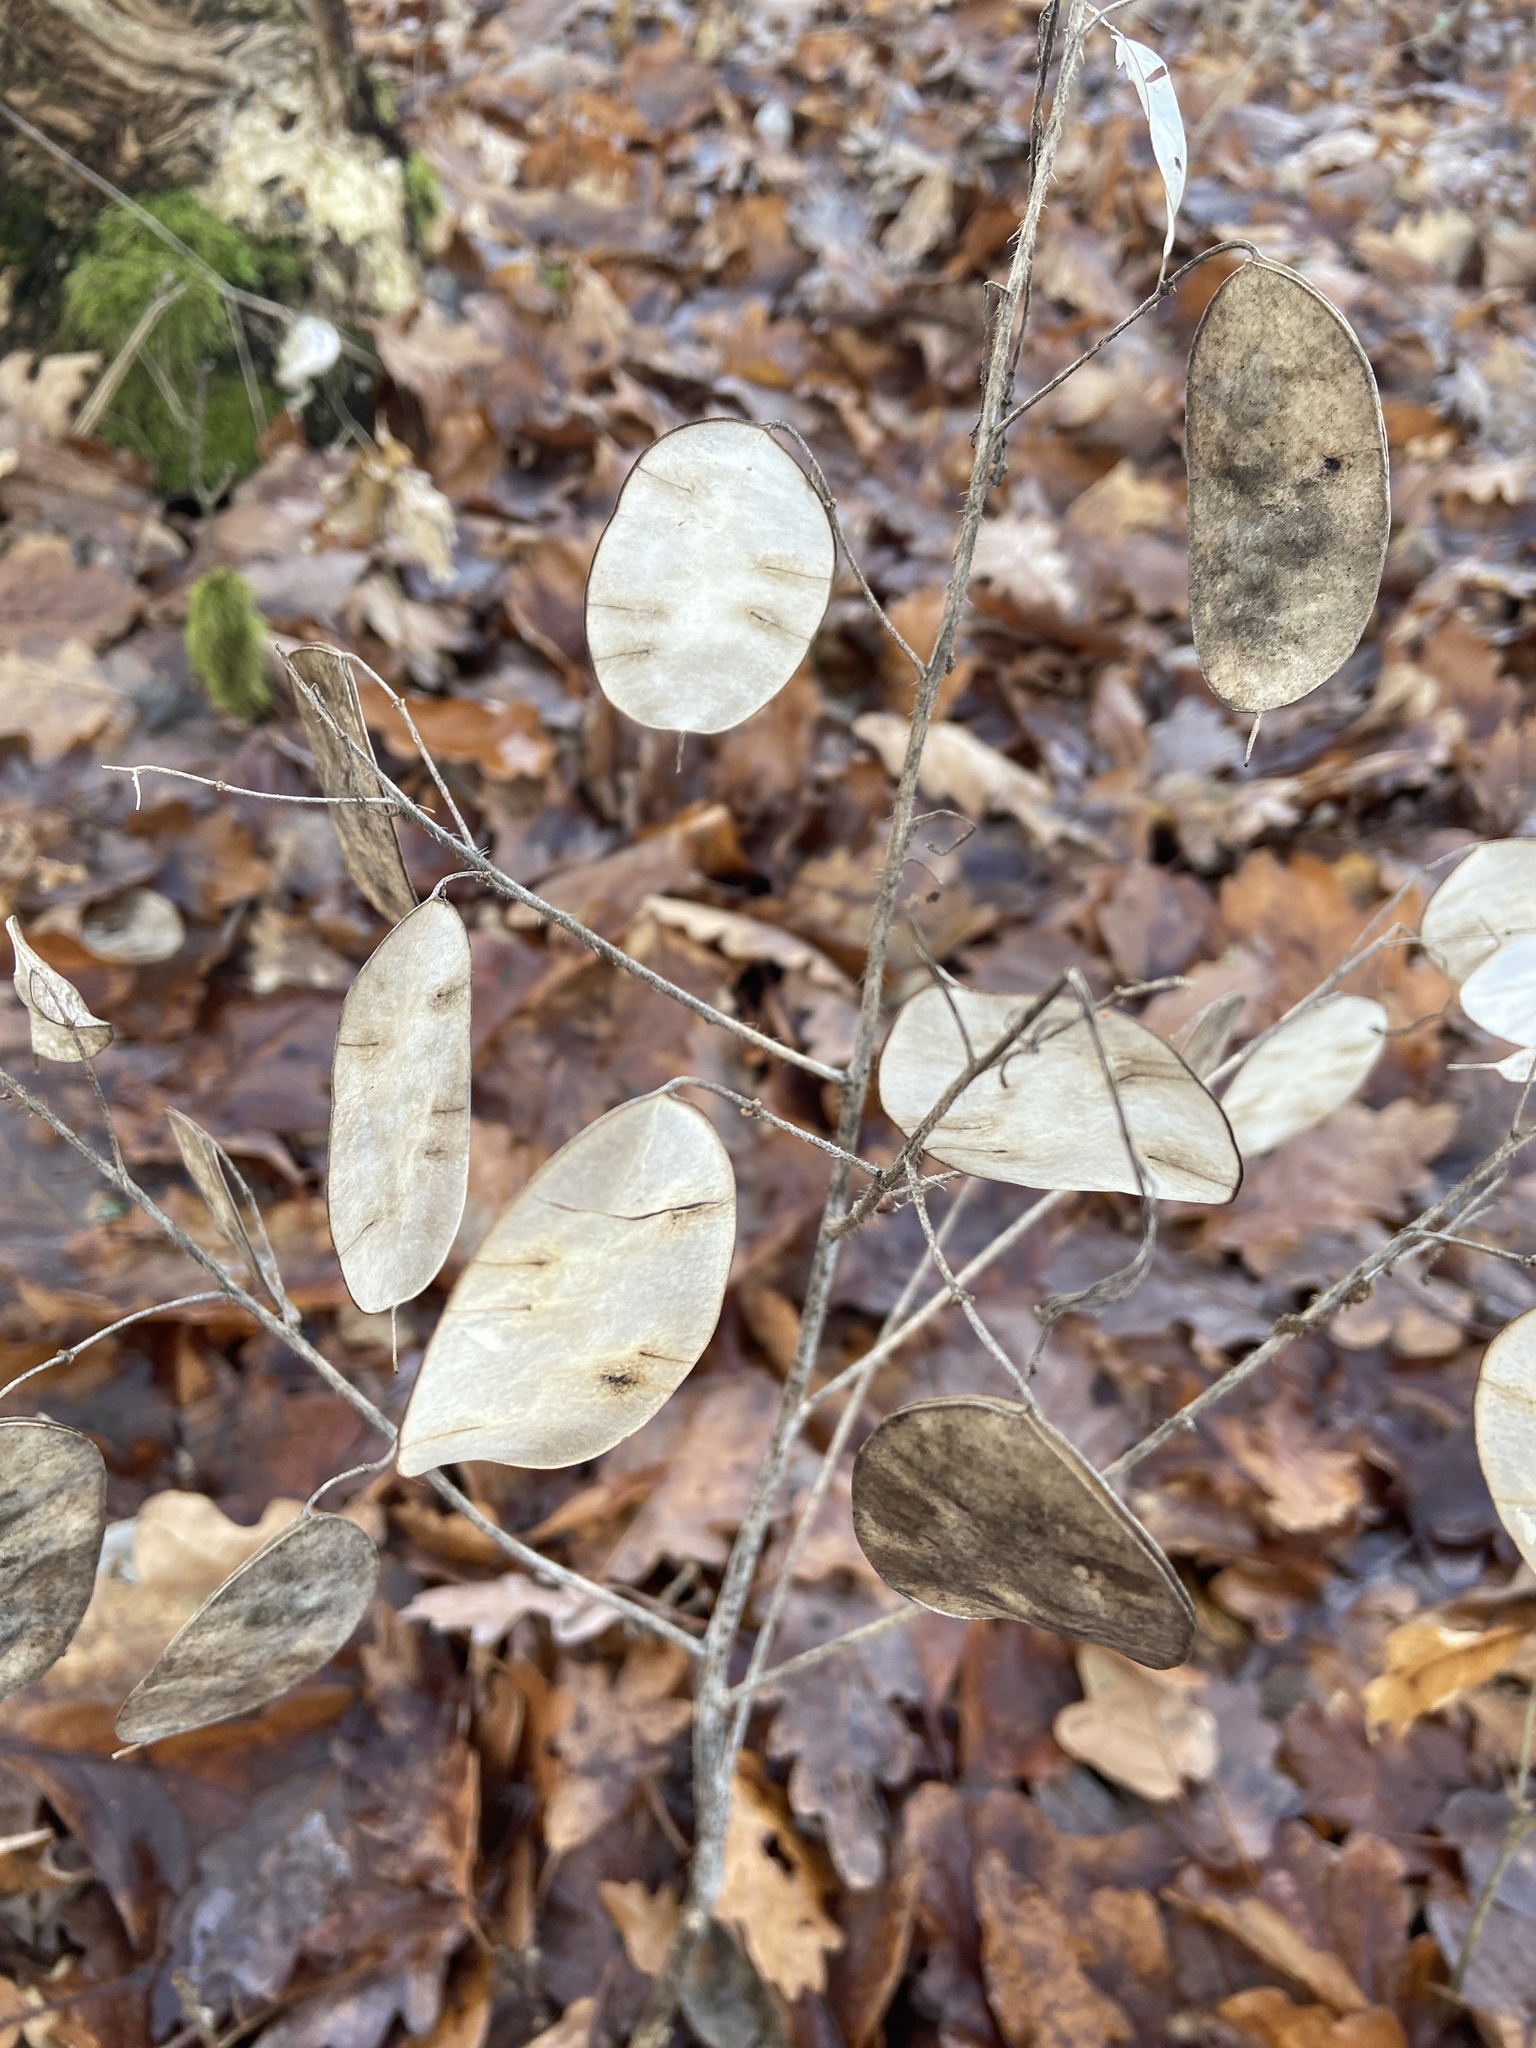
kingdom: Plantae
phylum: Tracheophyta
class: Magnoliopsida
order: Brassicales
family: Brassicaceae
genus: Lunaria
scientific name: Lunaria annua
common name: Honesty
